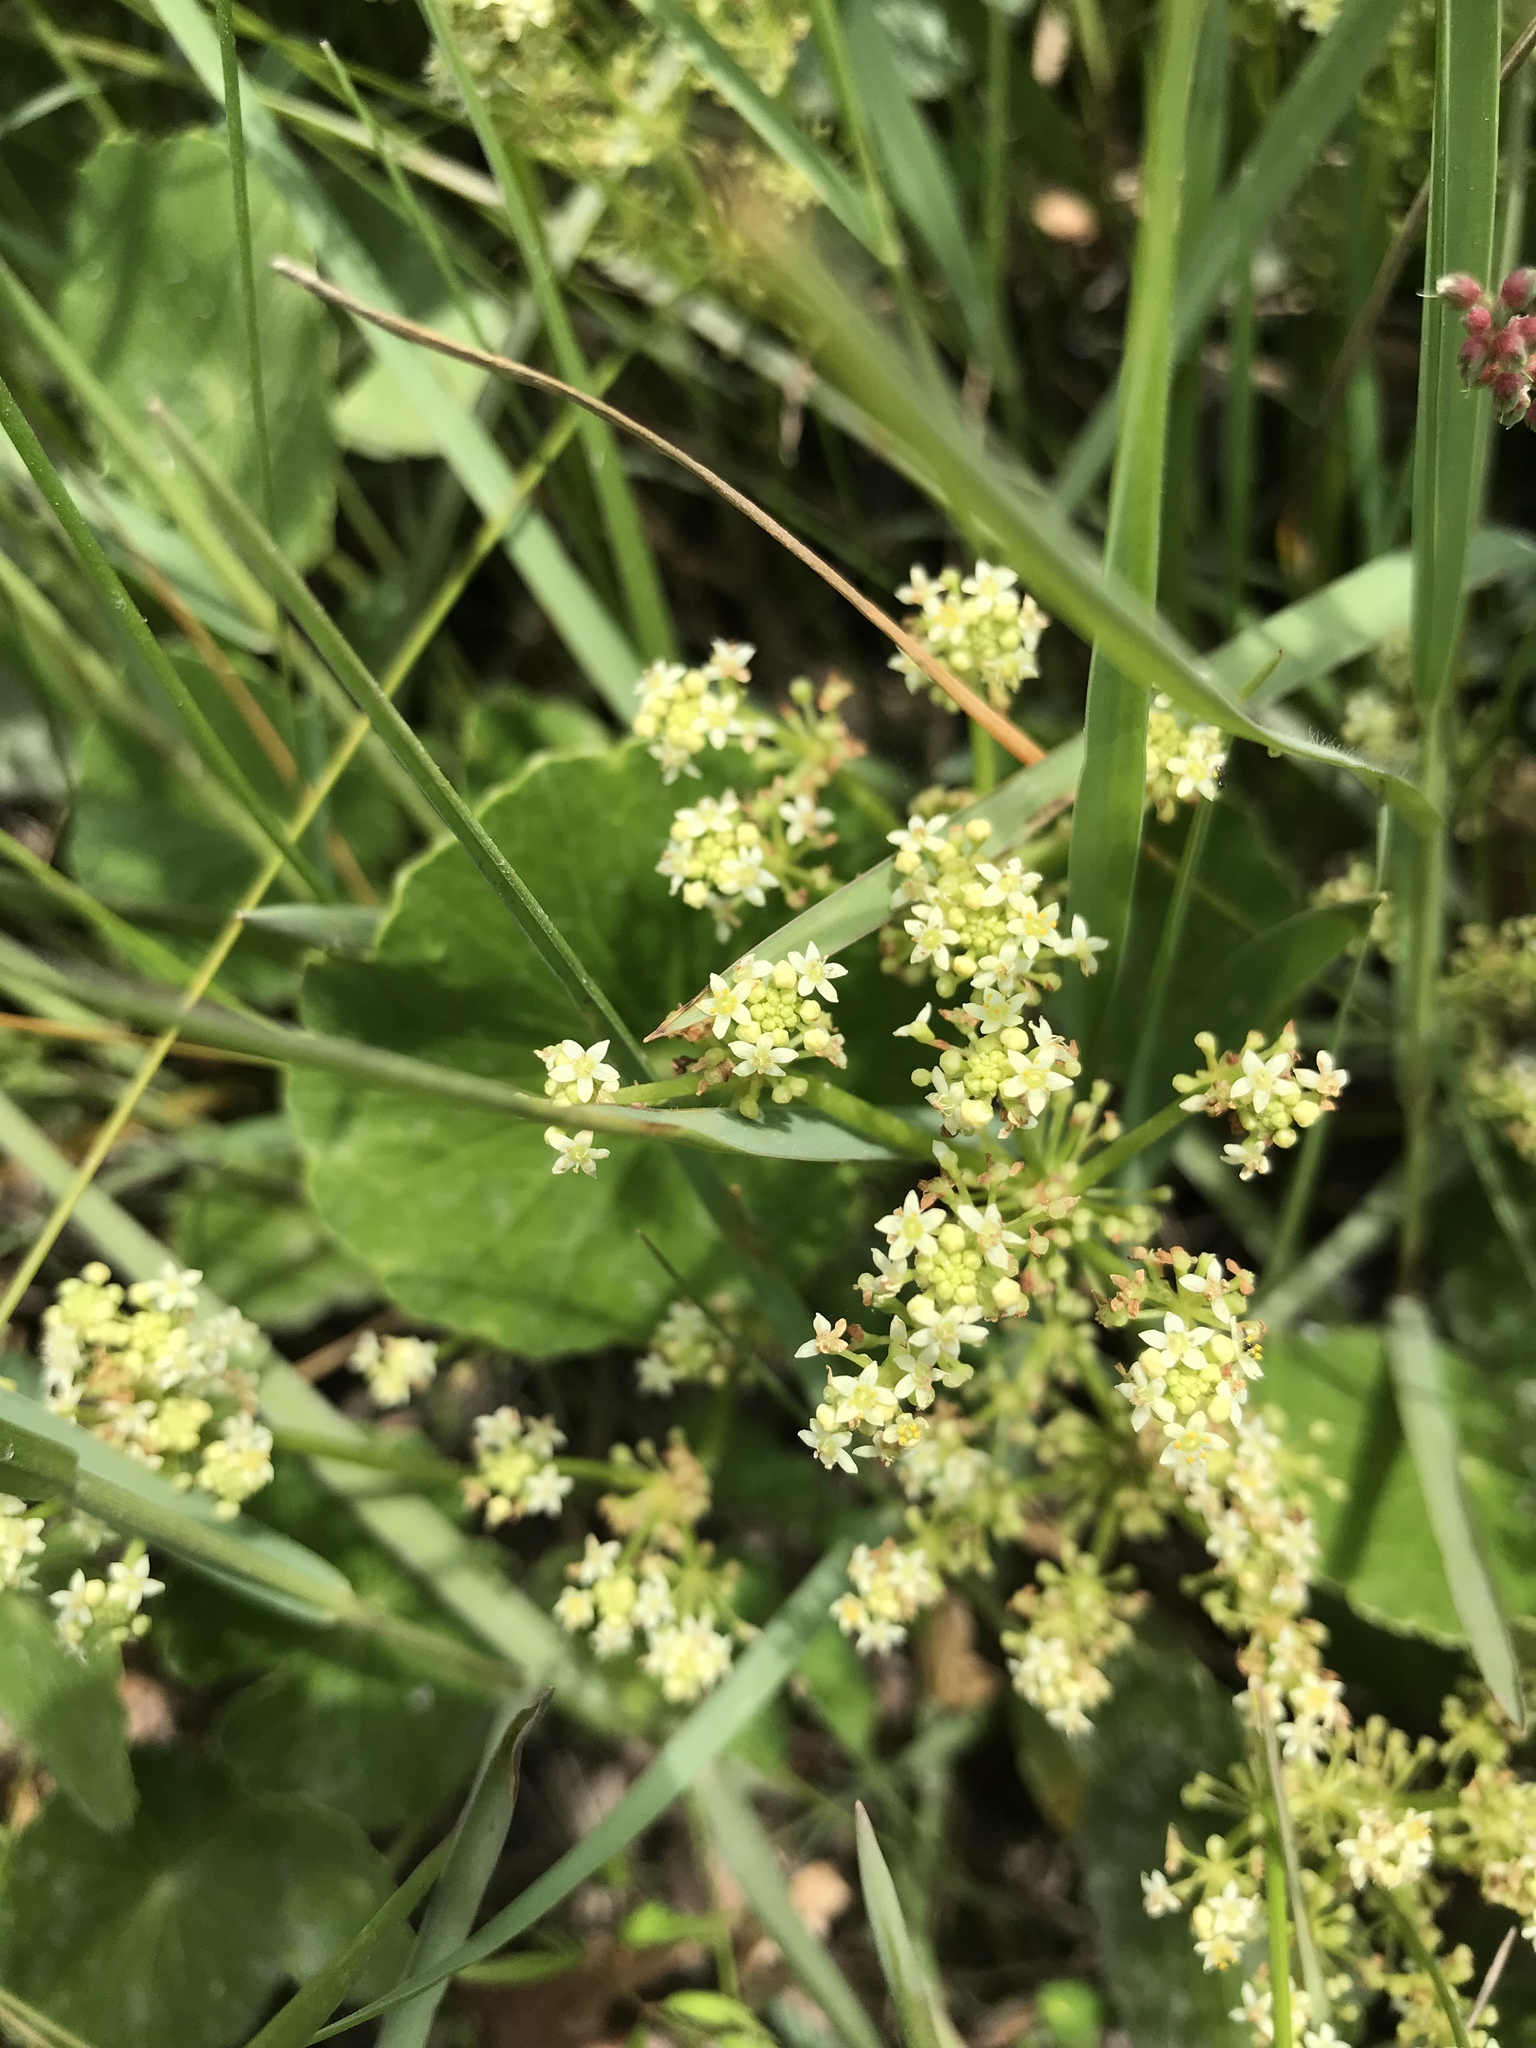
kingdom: Plantae
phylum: Tracheophyta
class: Magnoliopsida
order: Apiales
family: Araliaceae
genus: Hydrocotyle
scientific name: Hydrocotyle bonariensis
